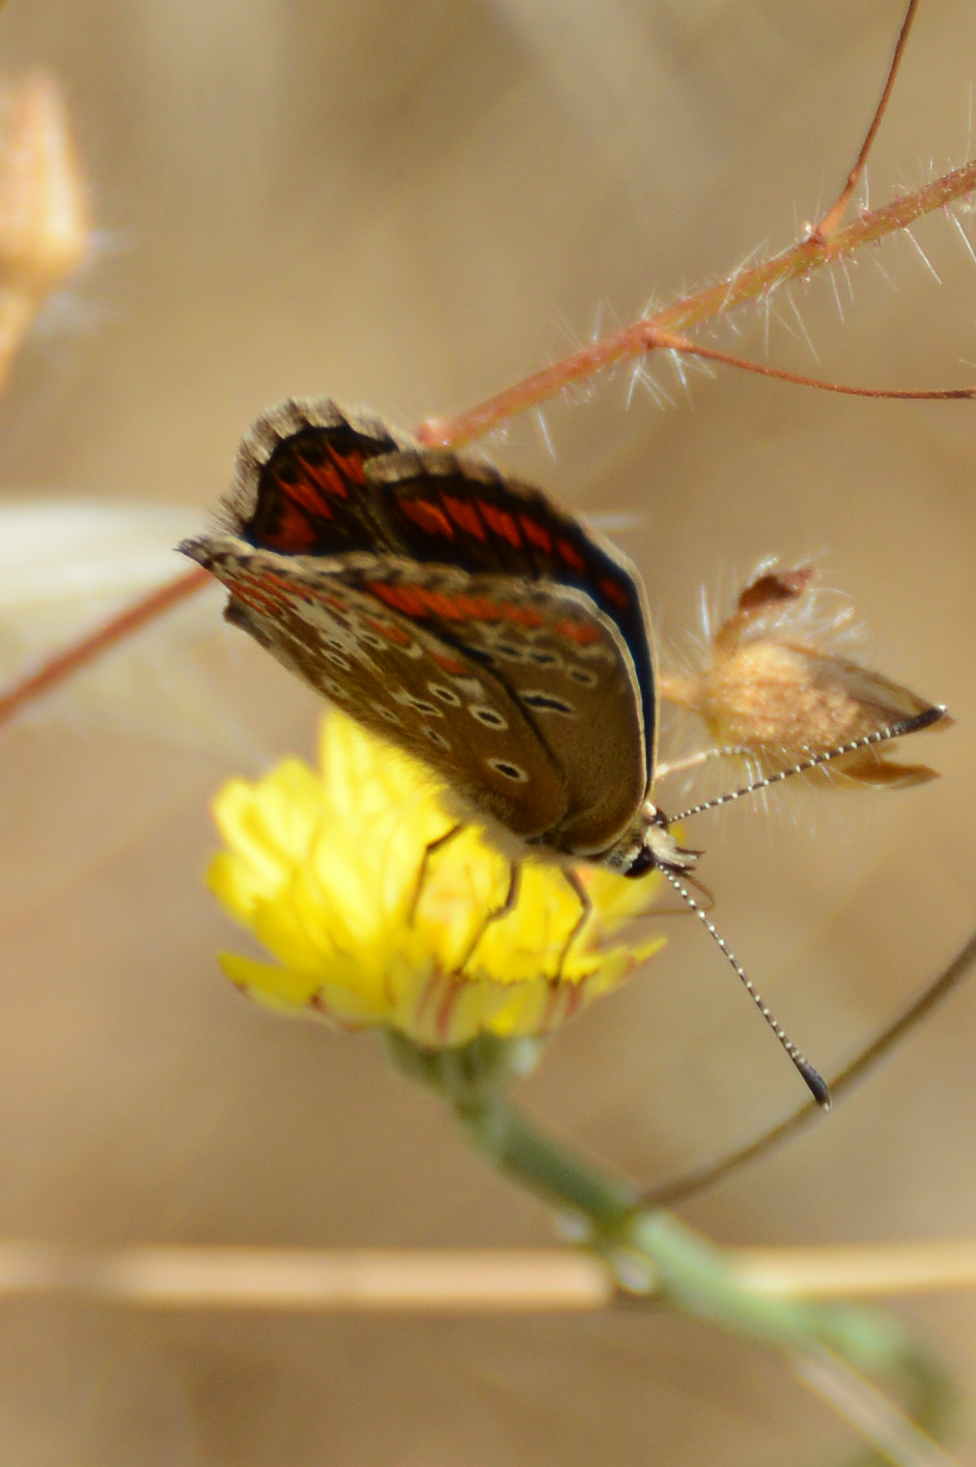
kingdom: Animalia
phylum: Arthropoda
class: Insecta
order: Lepidoptera
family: Lycaenidae
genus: Aricia
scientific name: Aricia agestis
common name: Brown argus
